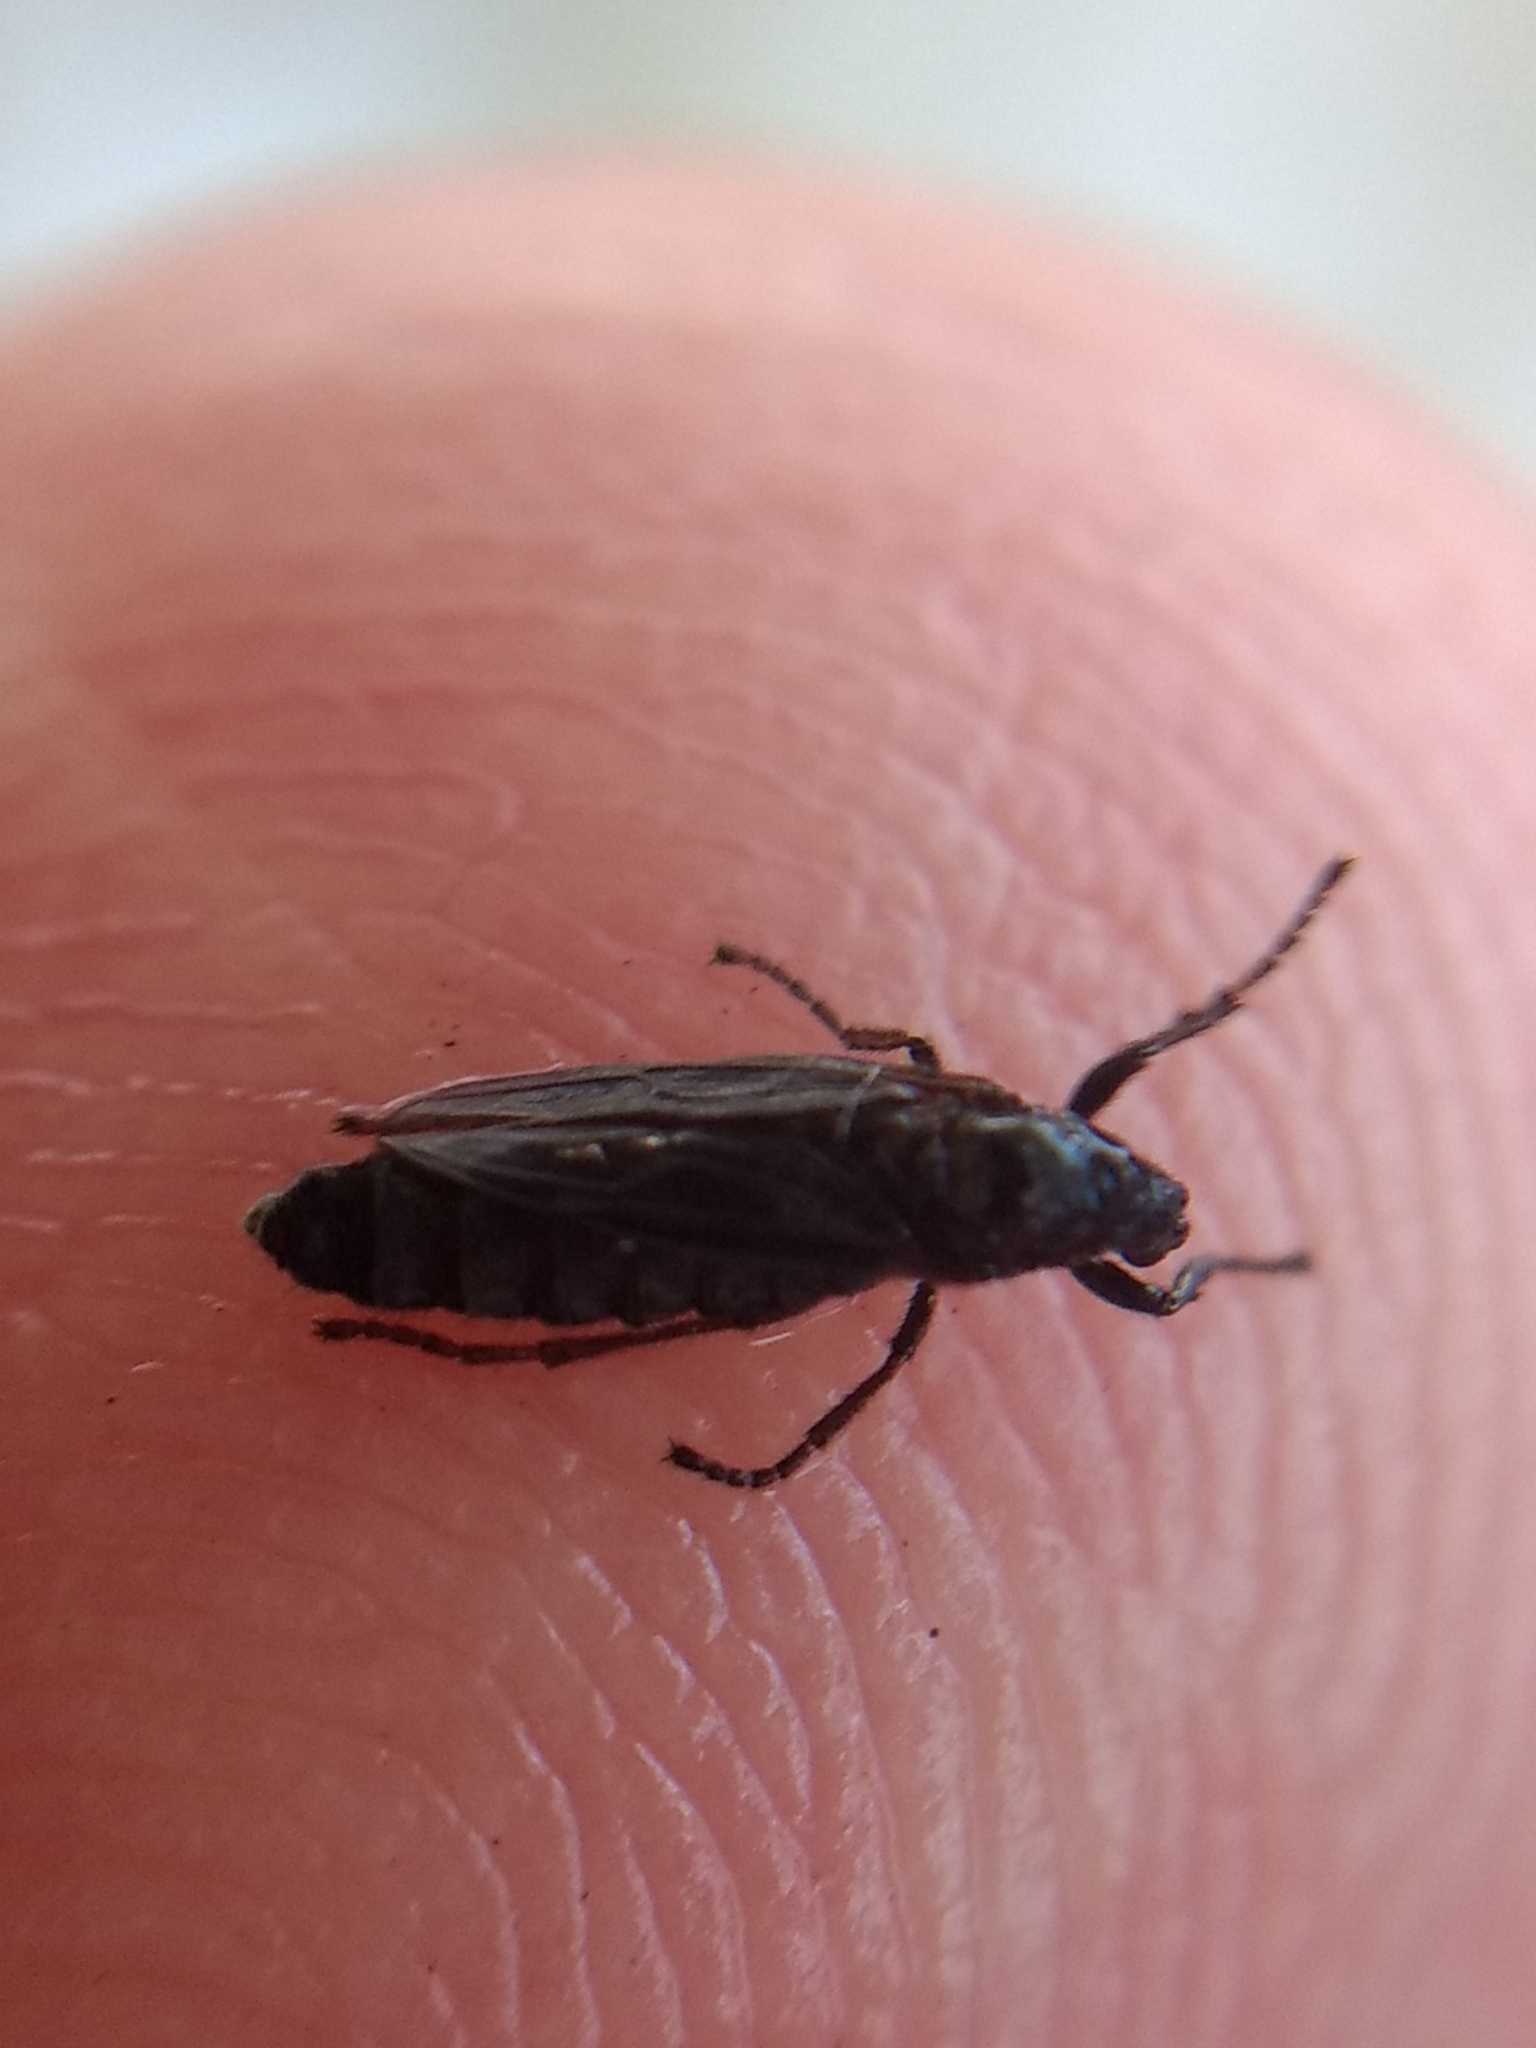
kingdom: Animalia
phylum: Arthropoda
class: Insecta
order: Diptera
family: Bibionidae
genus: Dilophus
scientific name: Dilophus orbatus
